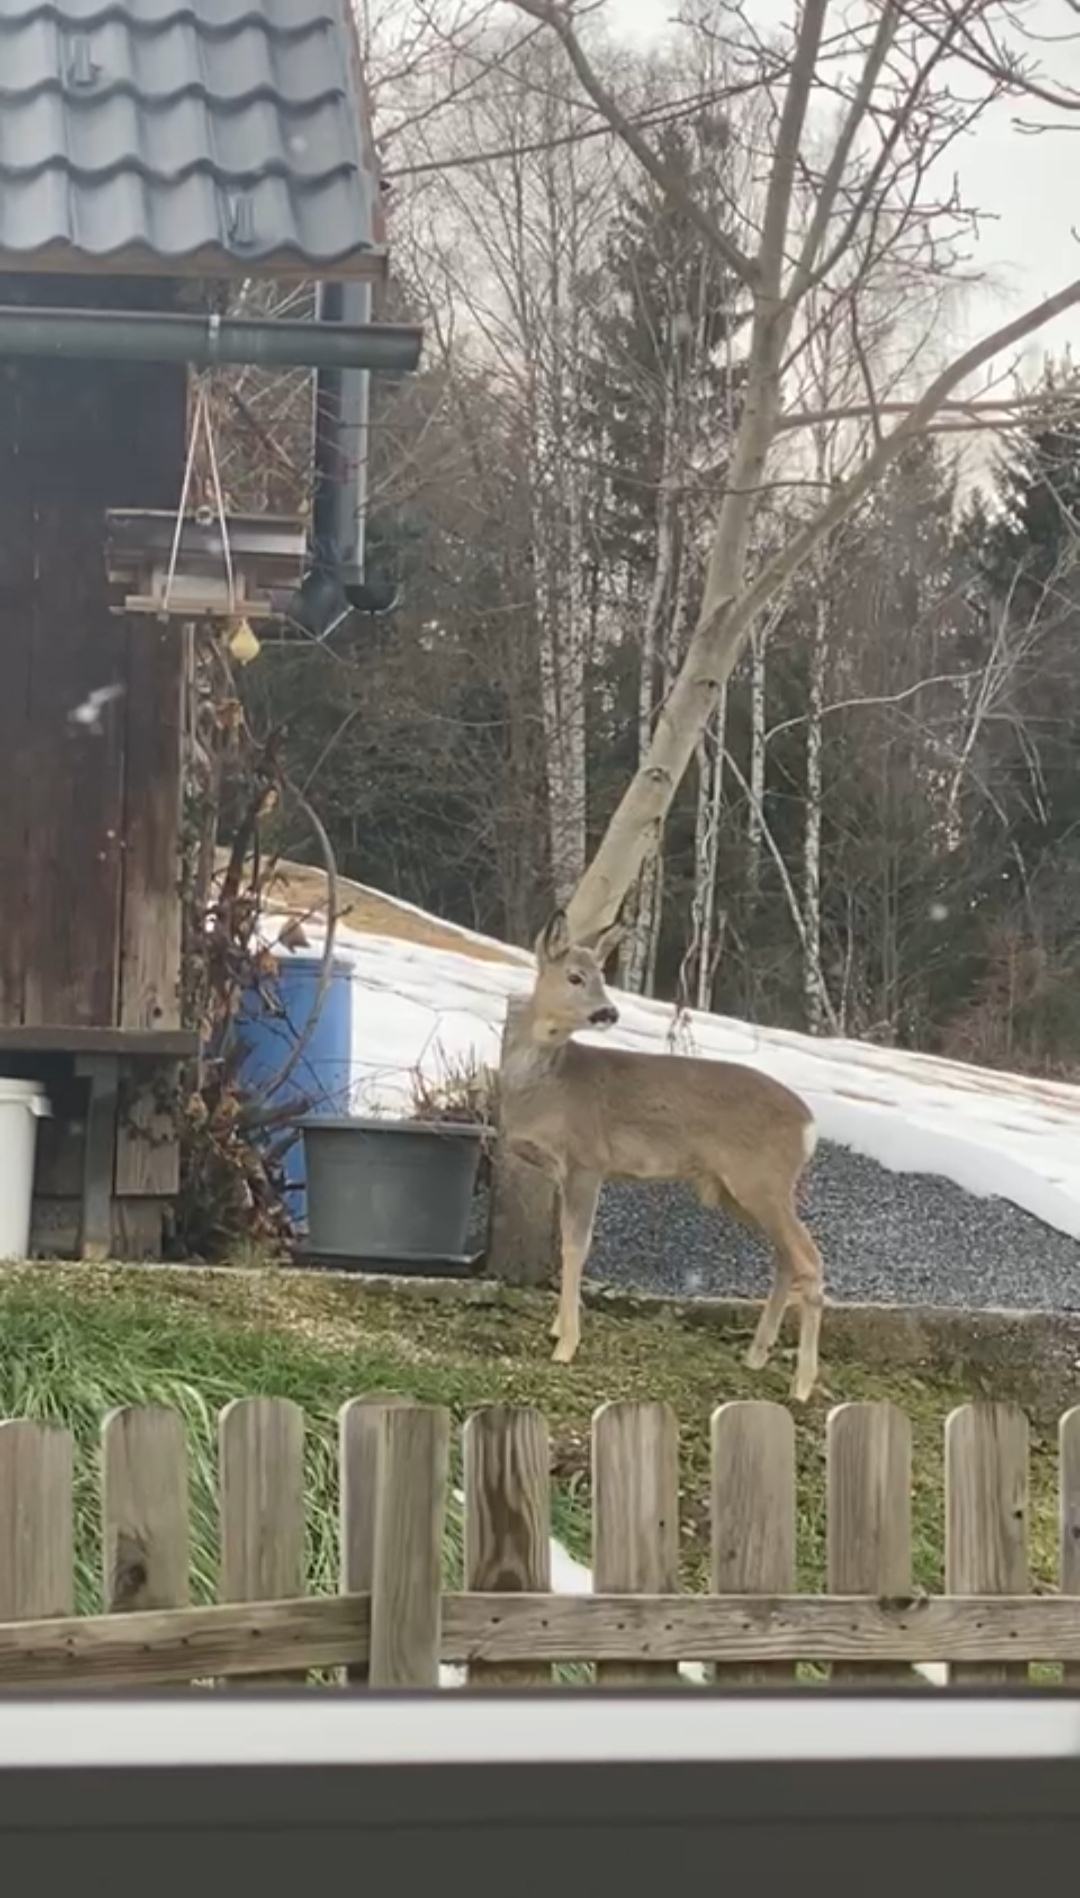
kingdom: Animalia
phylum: Chordata
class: Mammalia
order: Artiodactyla
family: Cervidae
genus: Capreolus
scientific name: Capreolus capreolus
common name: Western roe deer
